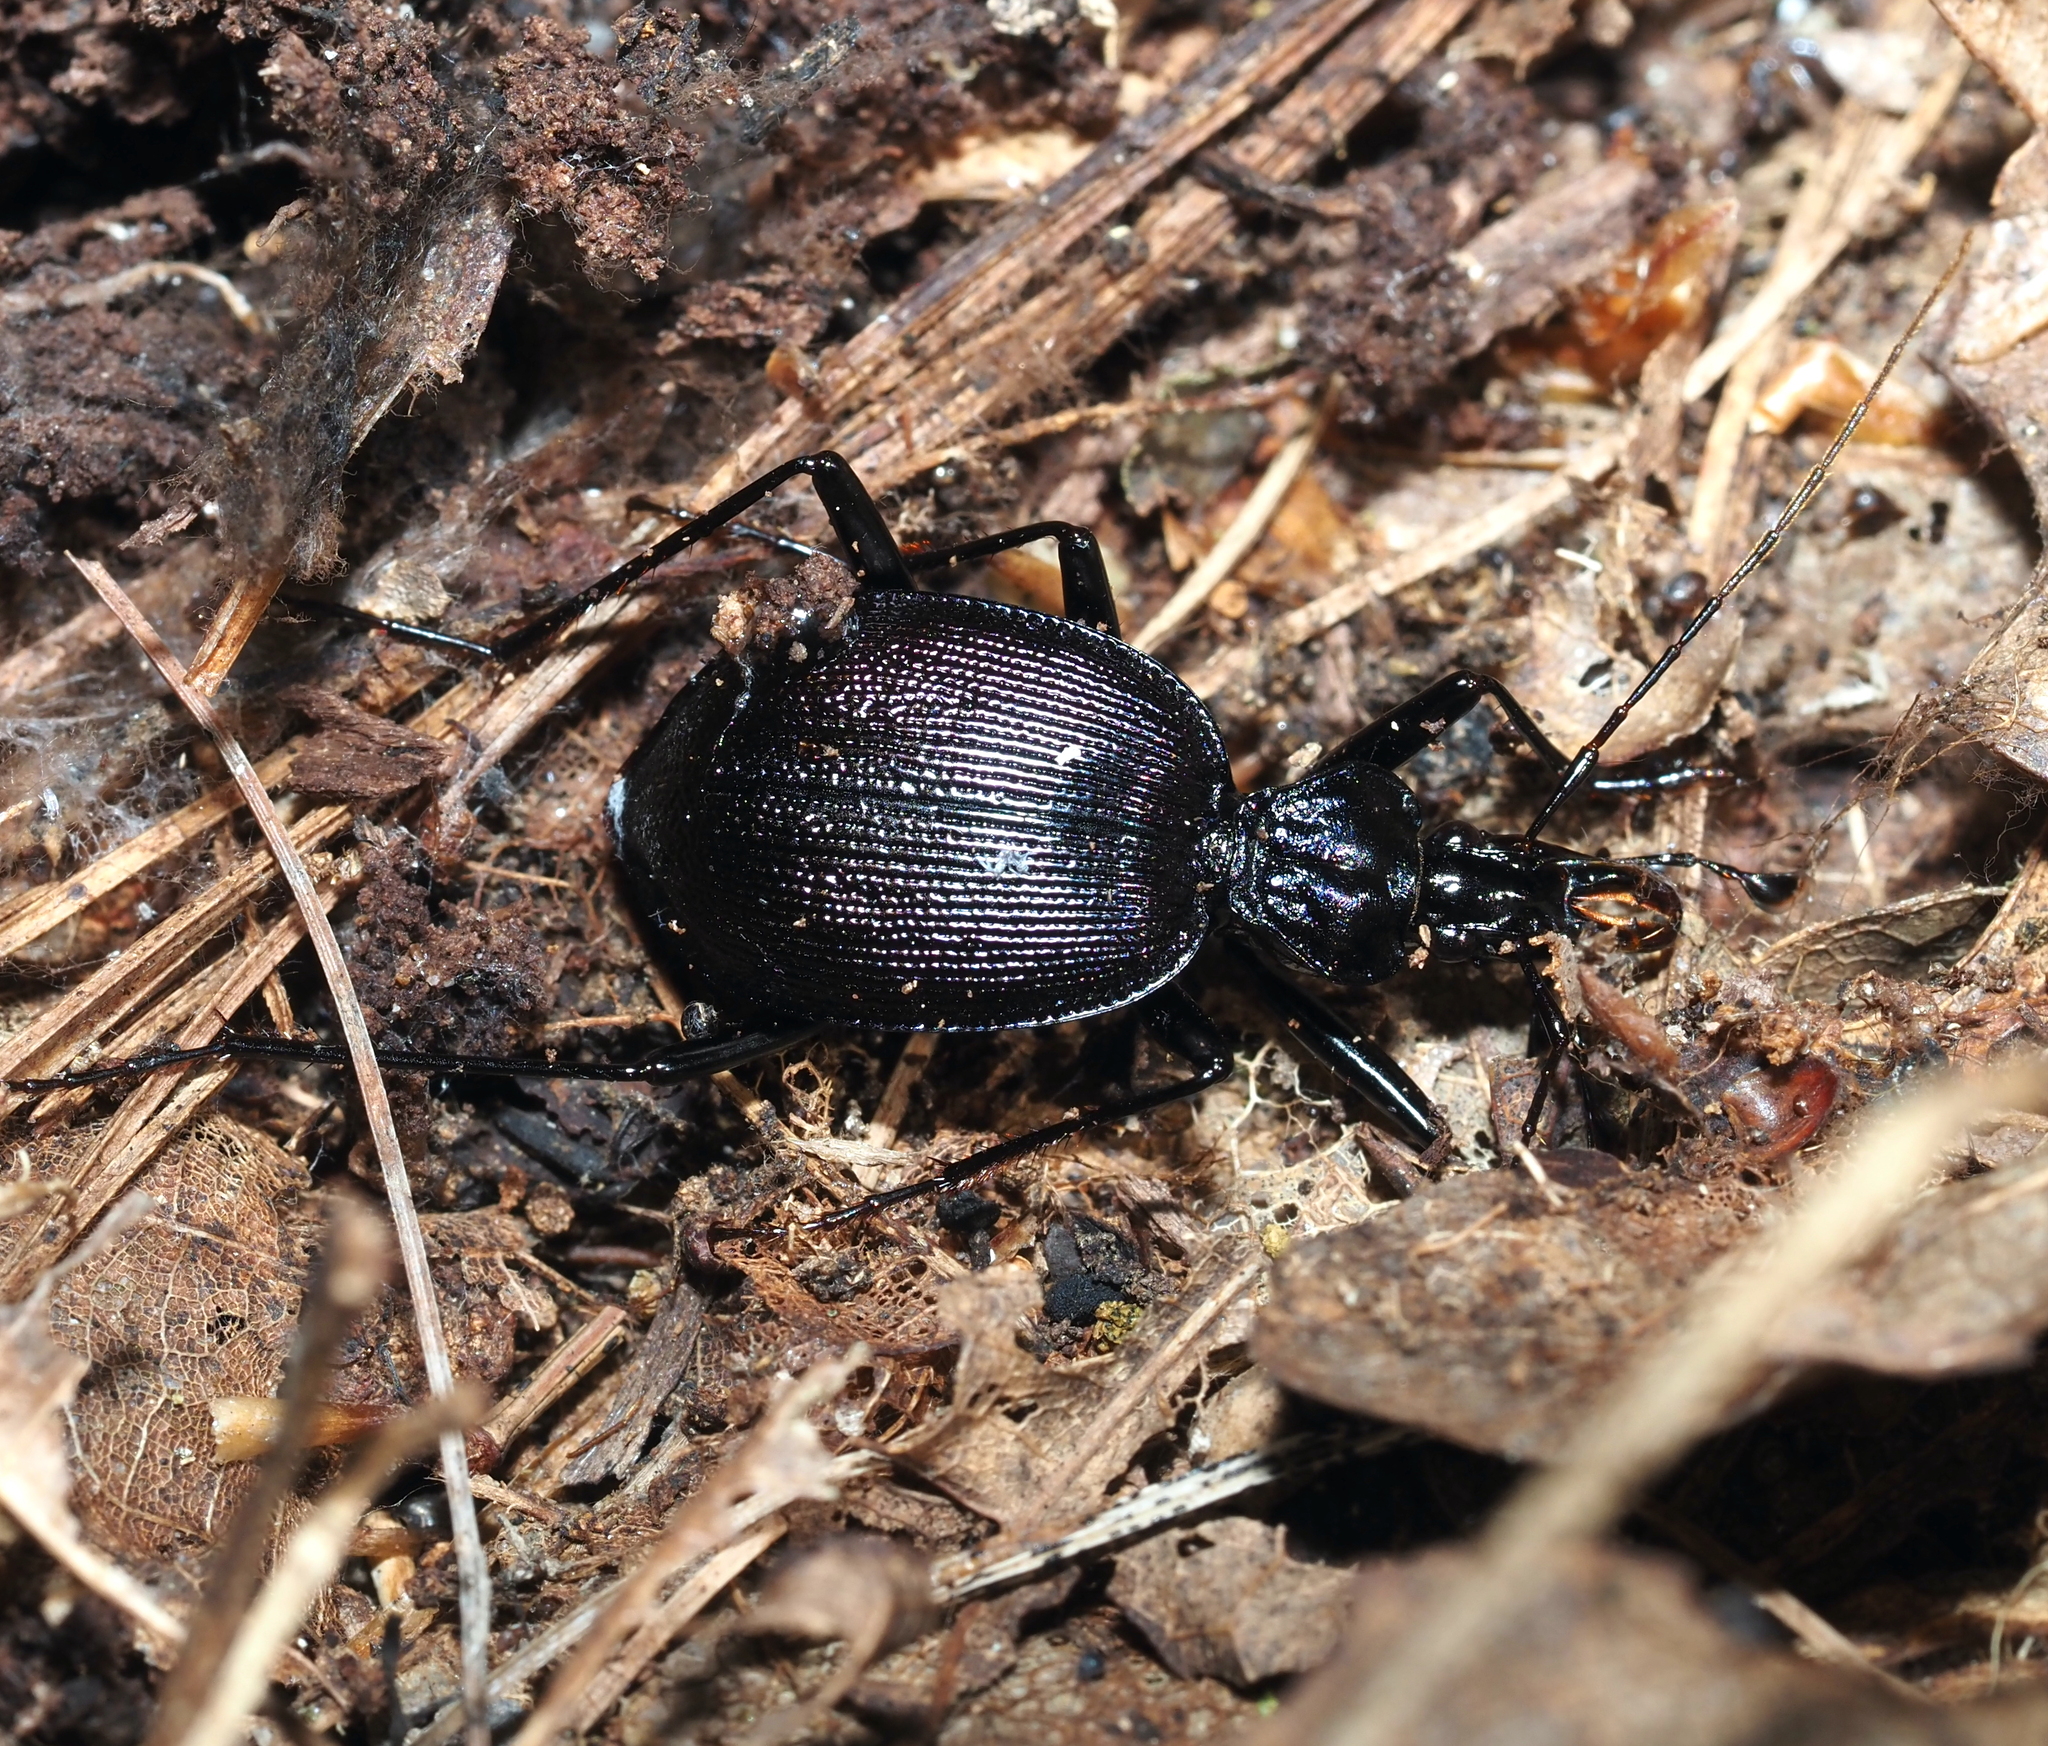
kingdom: Animalia
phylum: Arthropoda
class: Insecta
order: Coleoptera
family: Carabidae
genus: Scaphinotus
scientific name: Scaphinotus andrewsii
